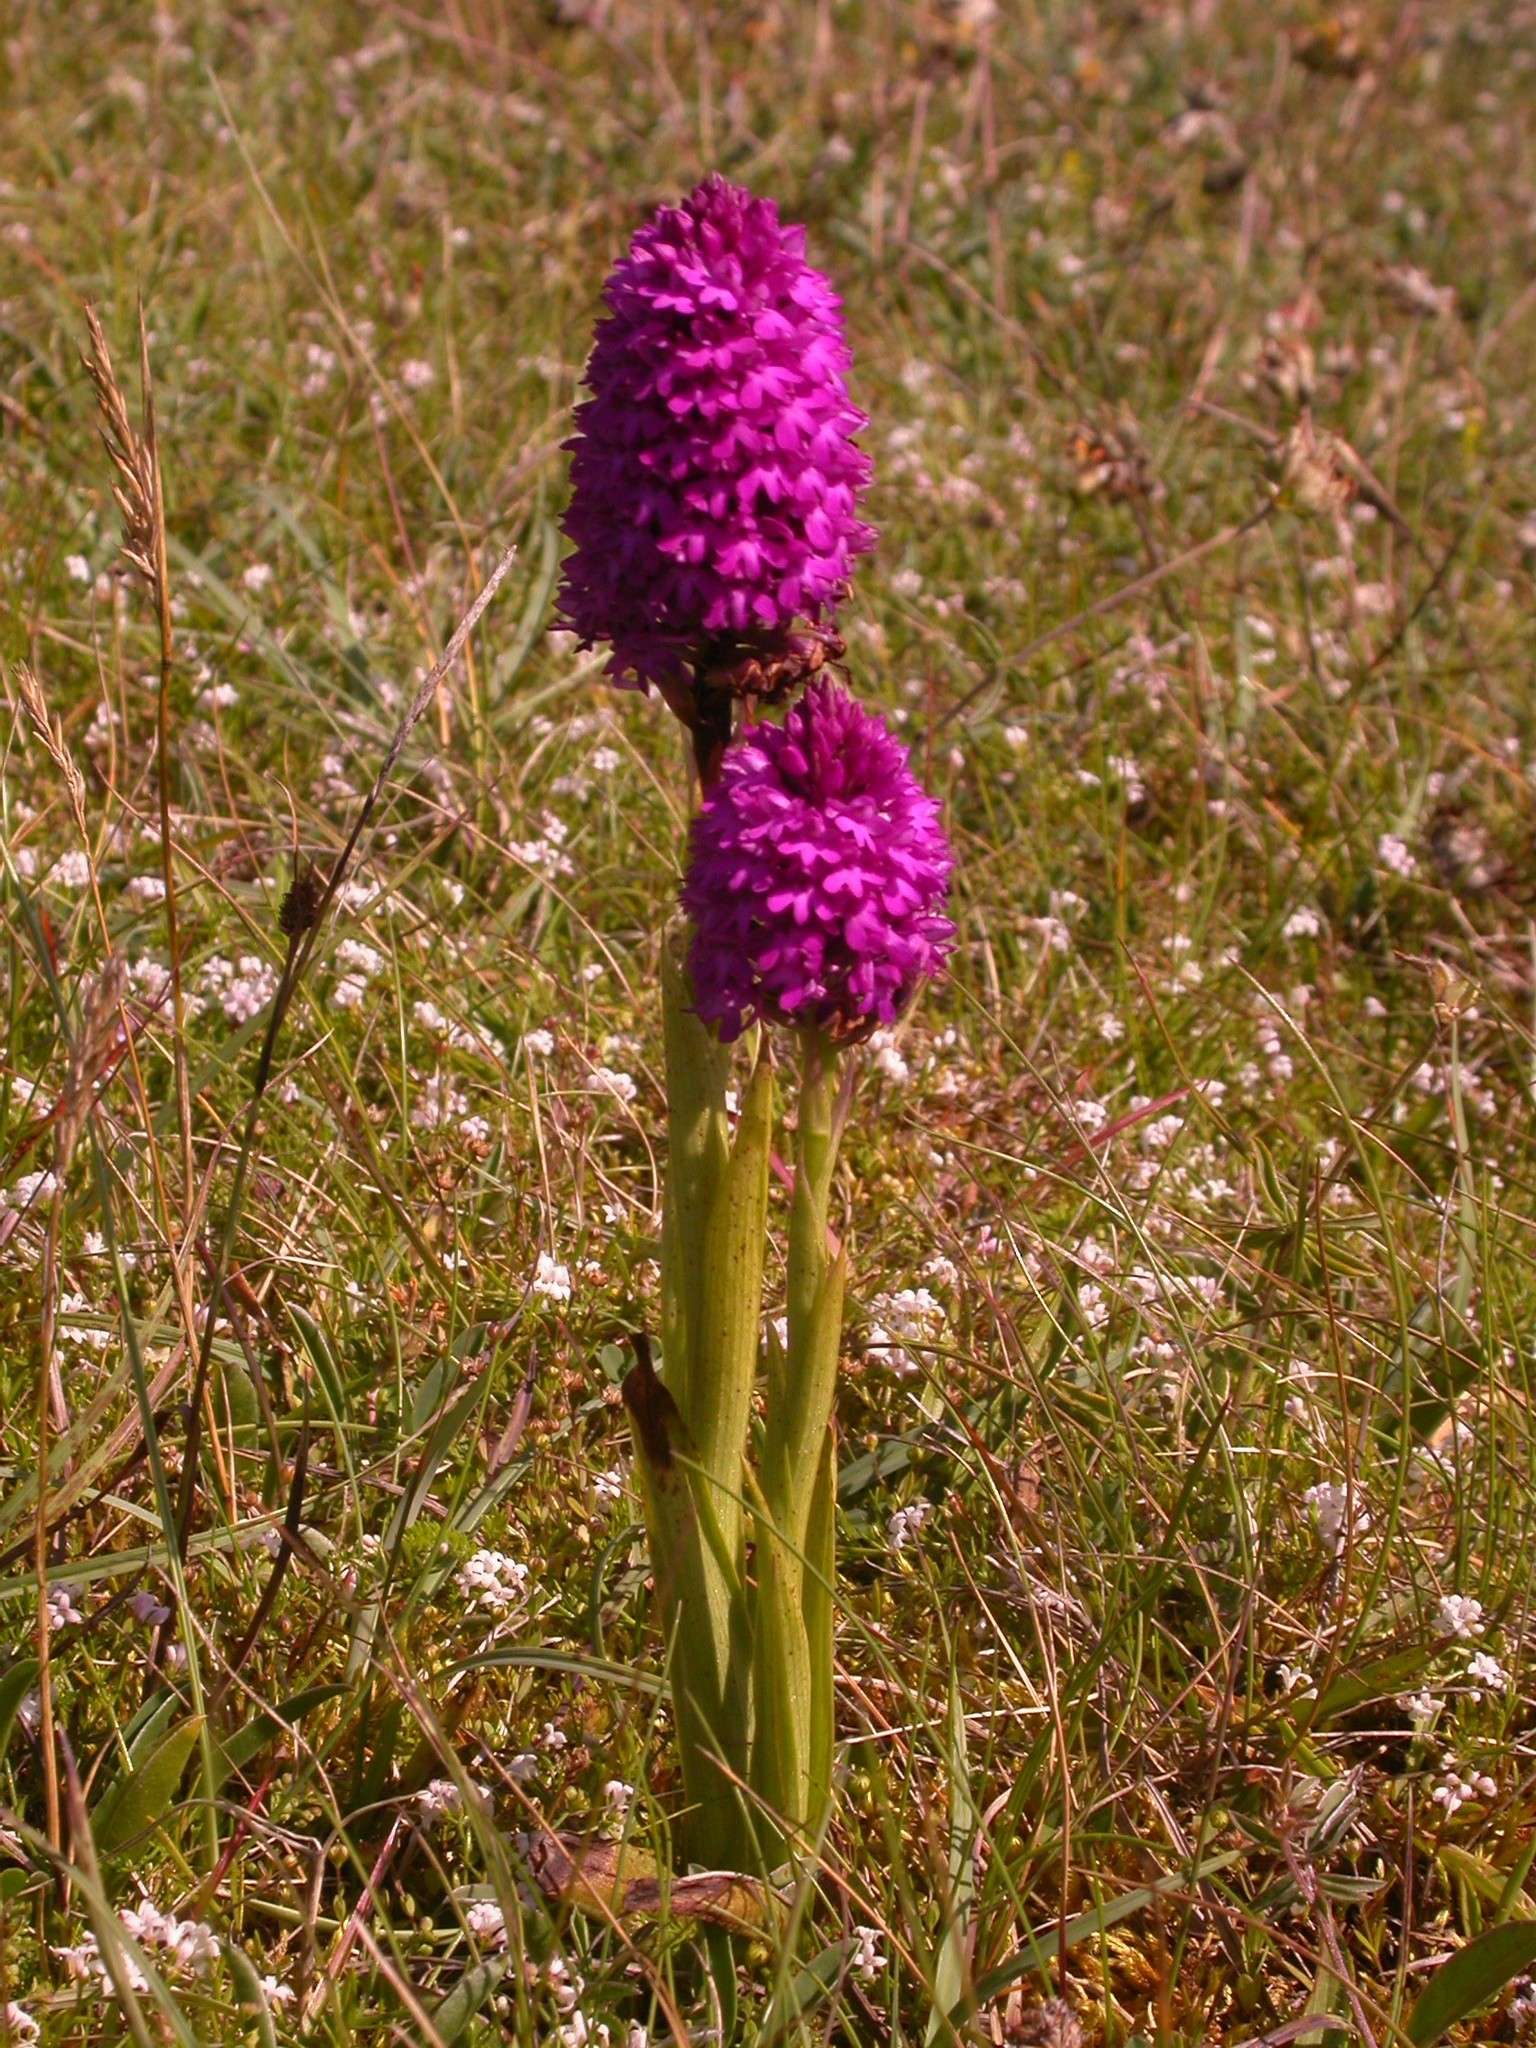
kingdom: Plantae
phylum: Tracheophyta
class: Liliopsida
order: Asparagales
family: Orchidaceae
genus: Anacamptis
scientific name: Anacamptis pyramidalis
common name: Pyramidal orchid
